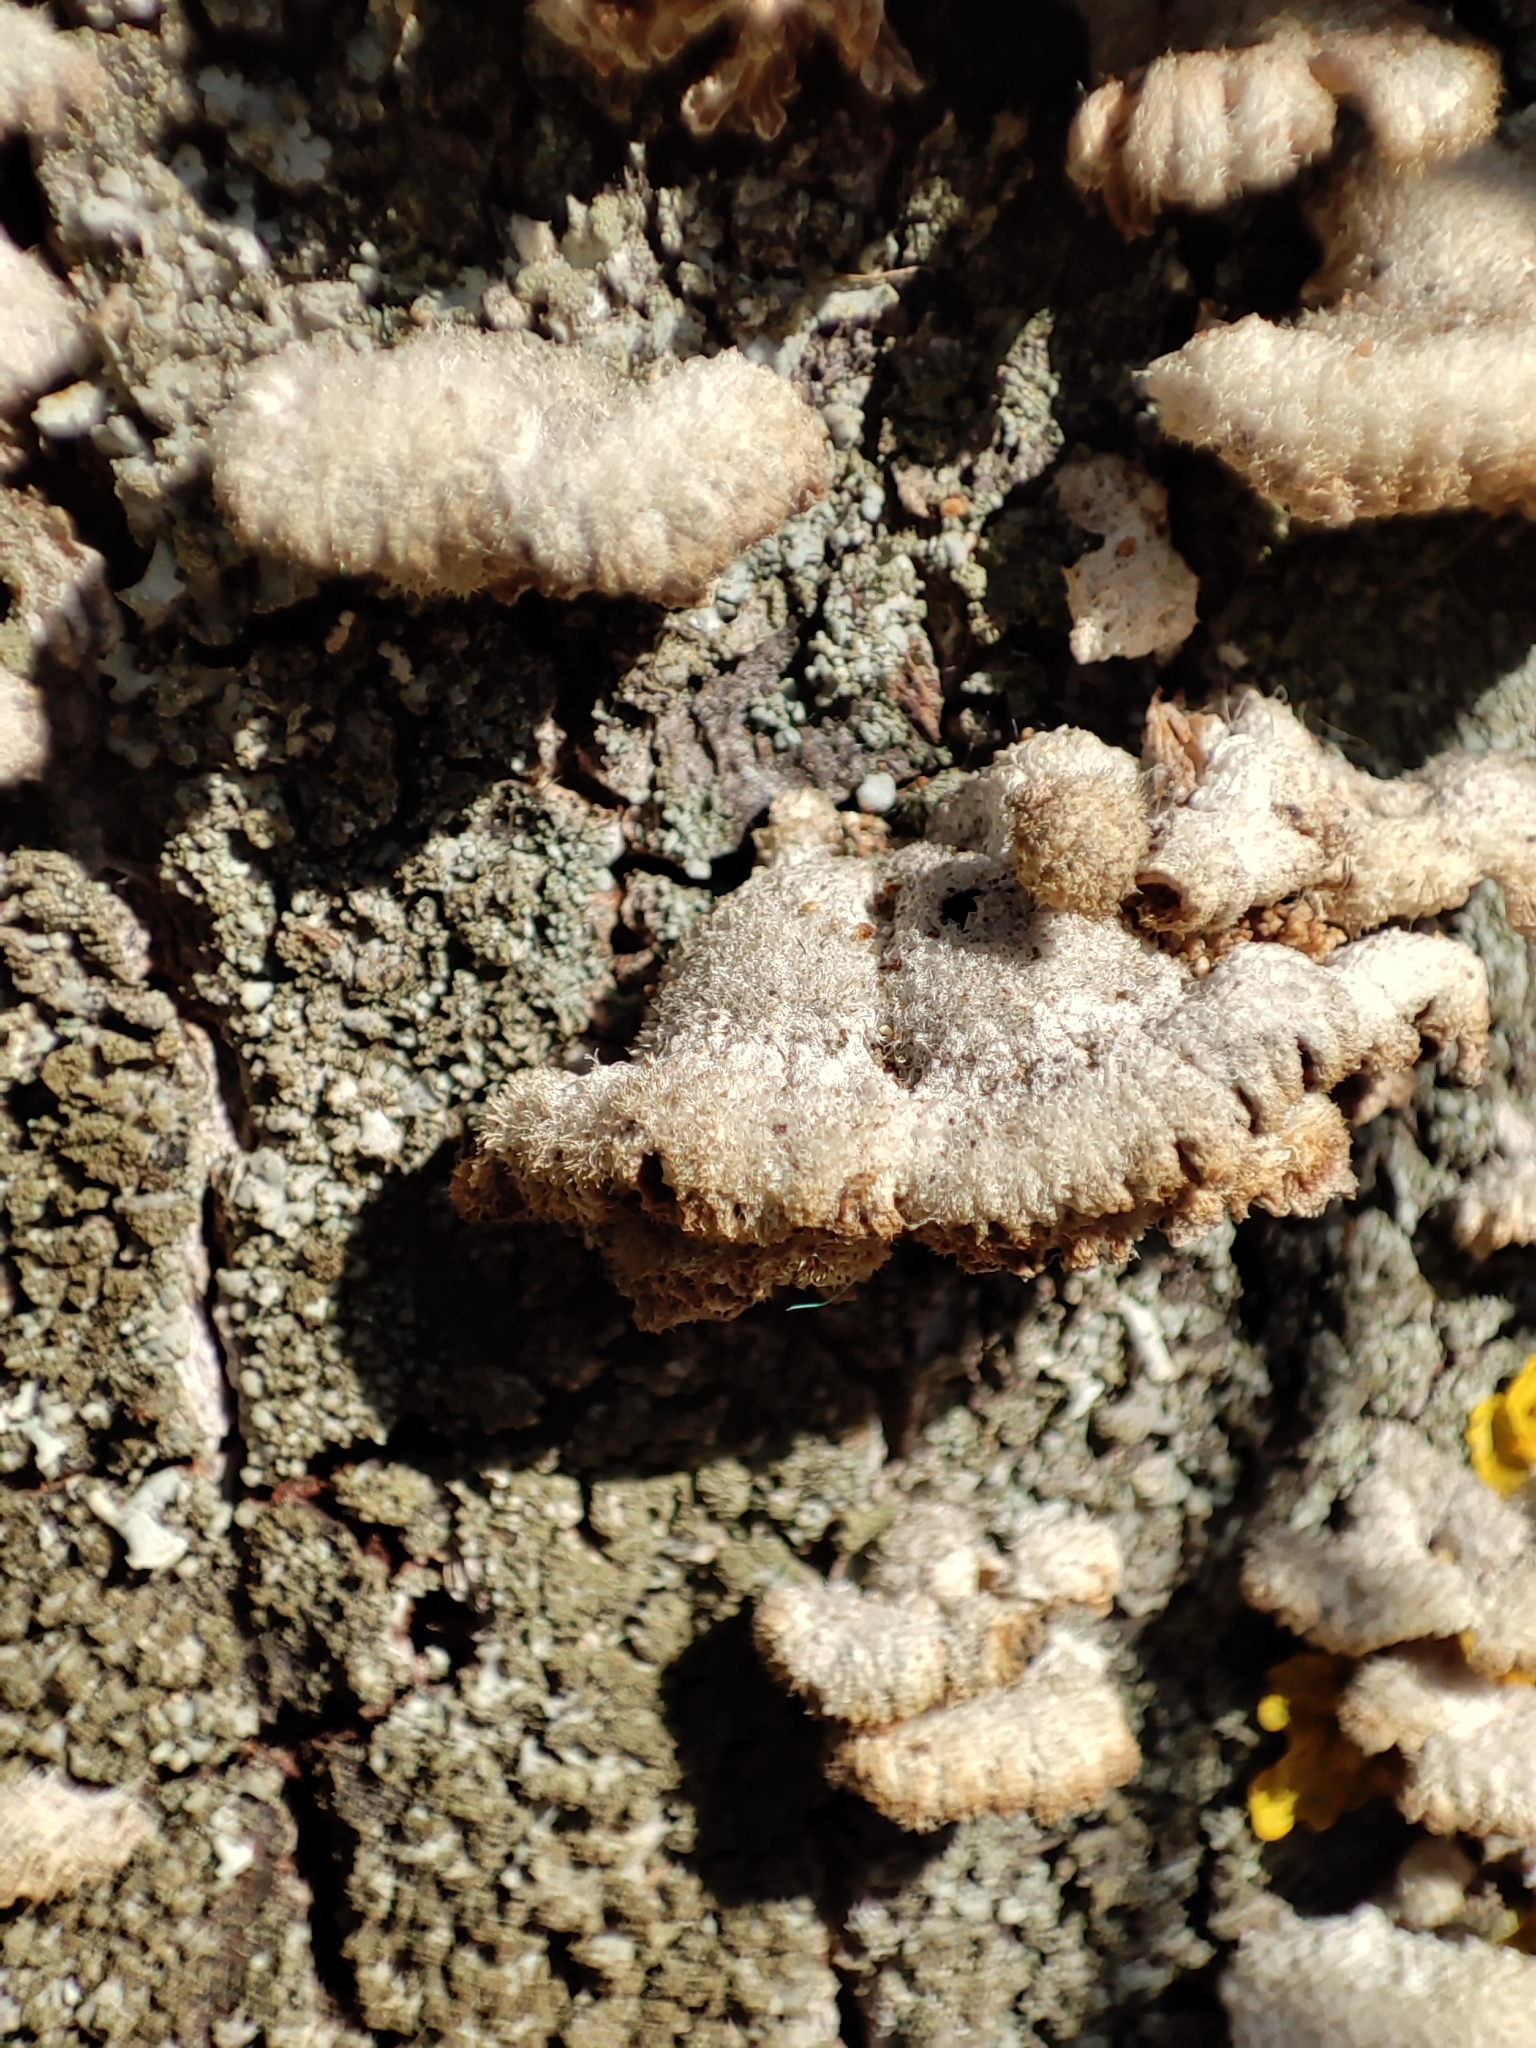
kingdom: Fungi
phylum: Basidiomycota
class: Agaricomycetes
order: Agaricales
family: Schizophyllaceae
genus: Schizophyllum
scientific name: Schizophyllum commune
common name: Common porecrust
